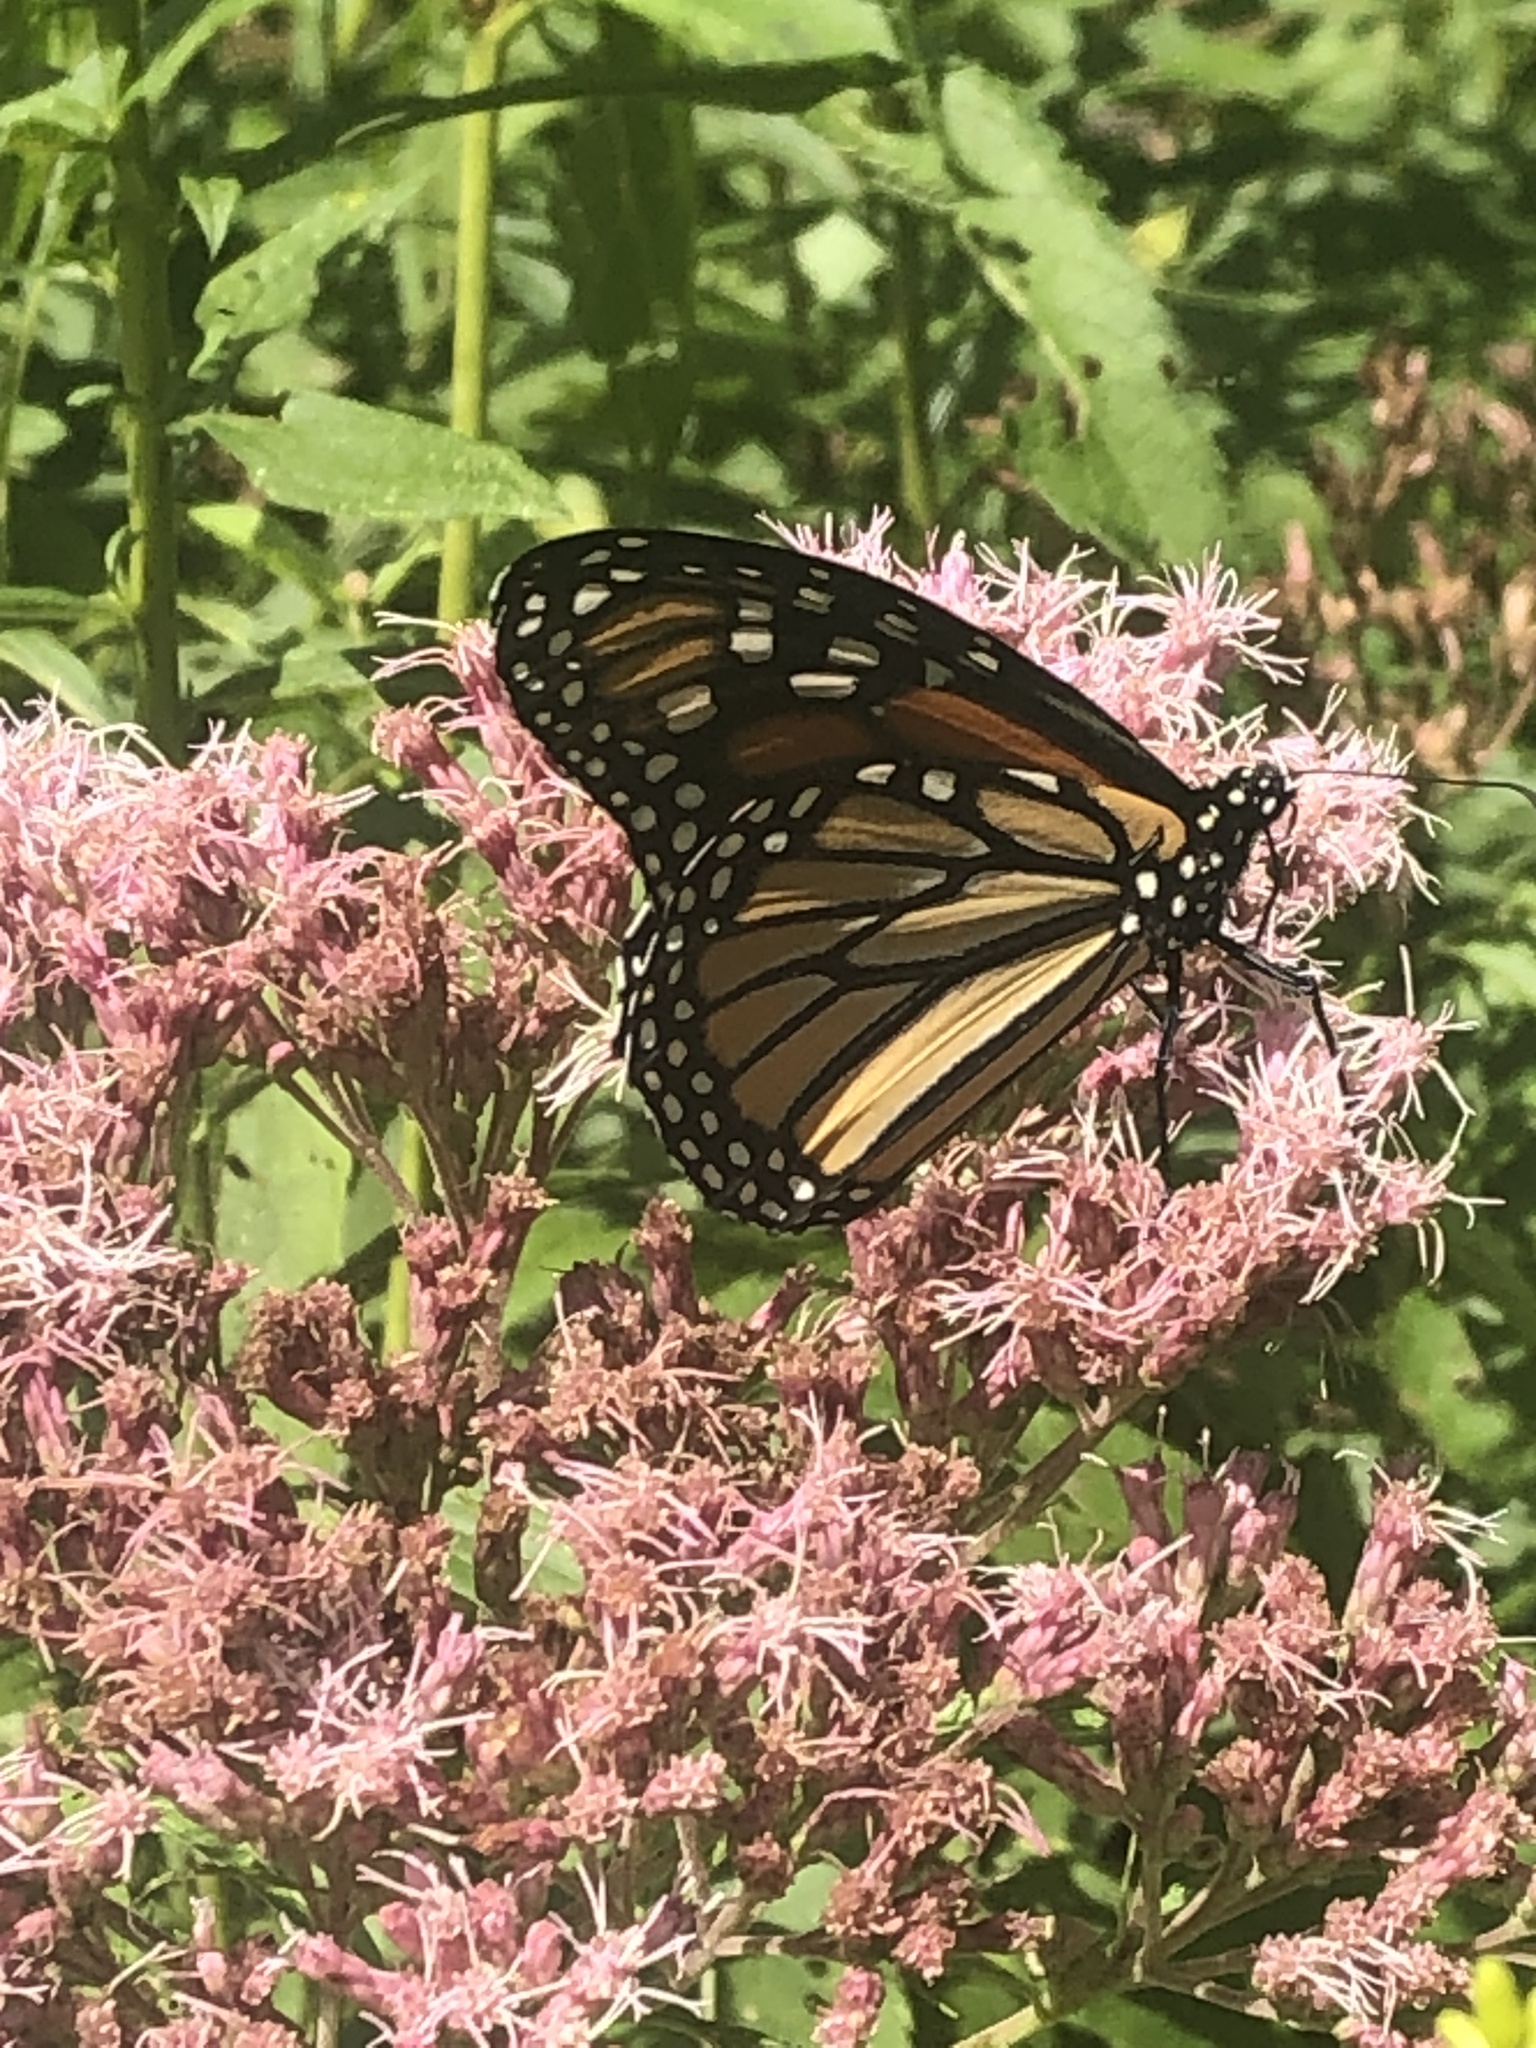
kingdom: Animalia
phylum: Arthropoda
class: Insecta
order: Lepidoptera
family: Nymphalidae
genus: Danaus
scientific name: Danaus plexippus
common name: Monarch
